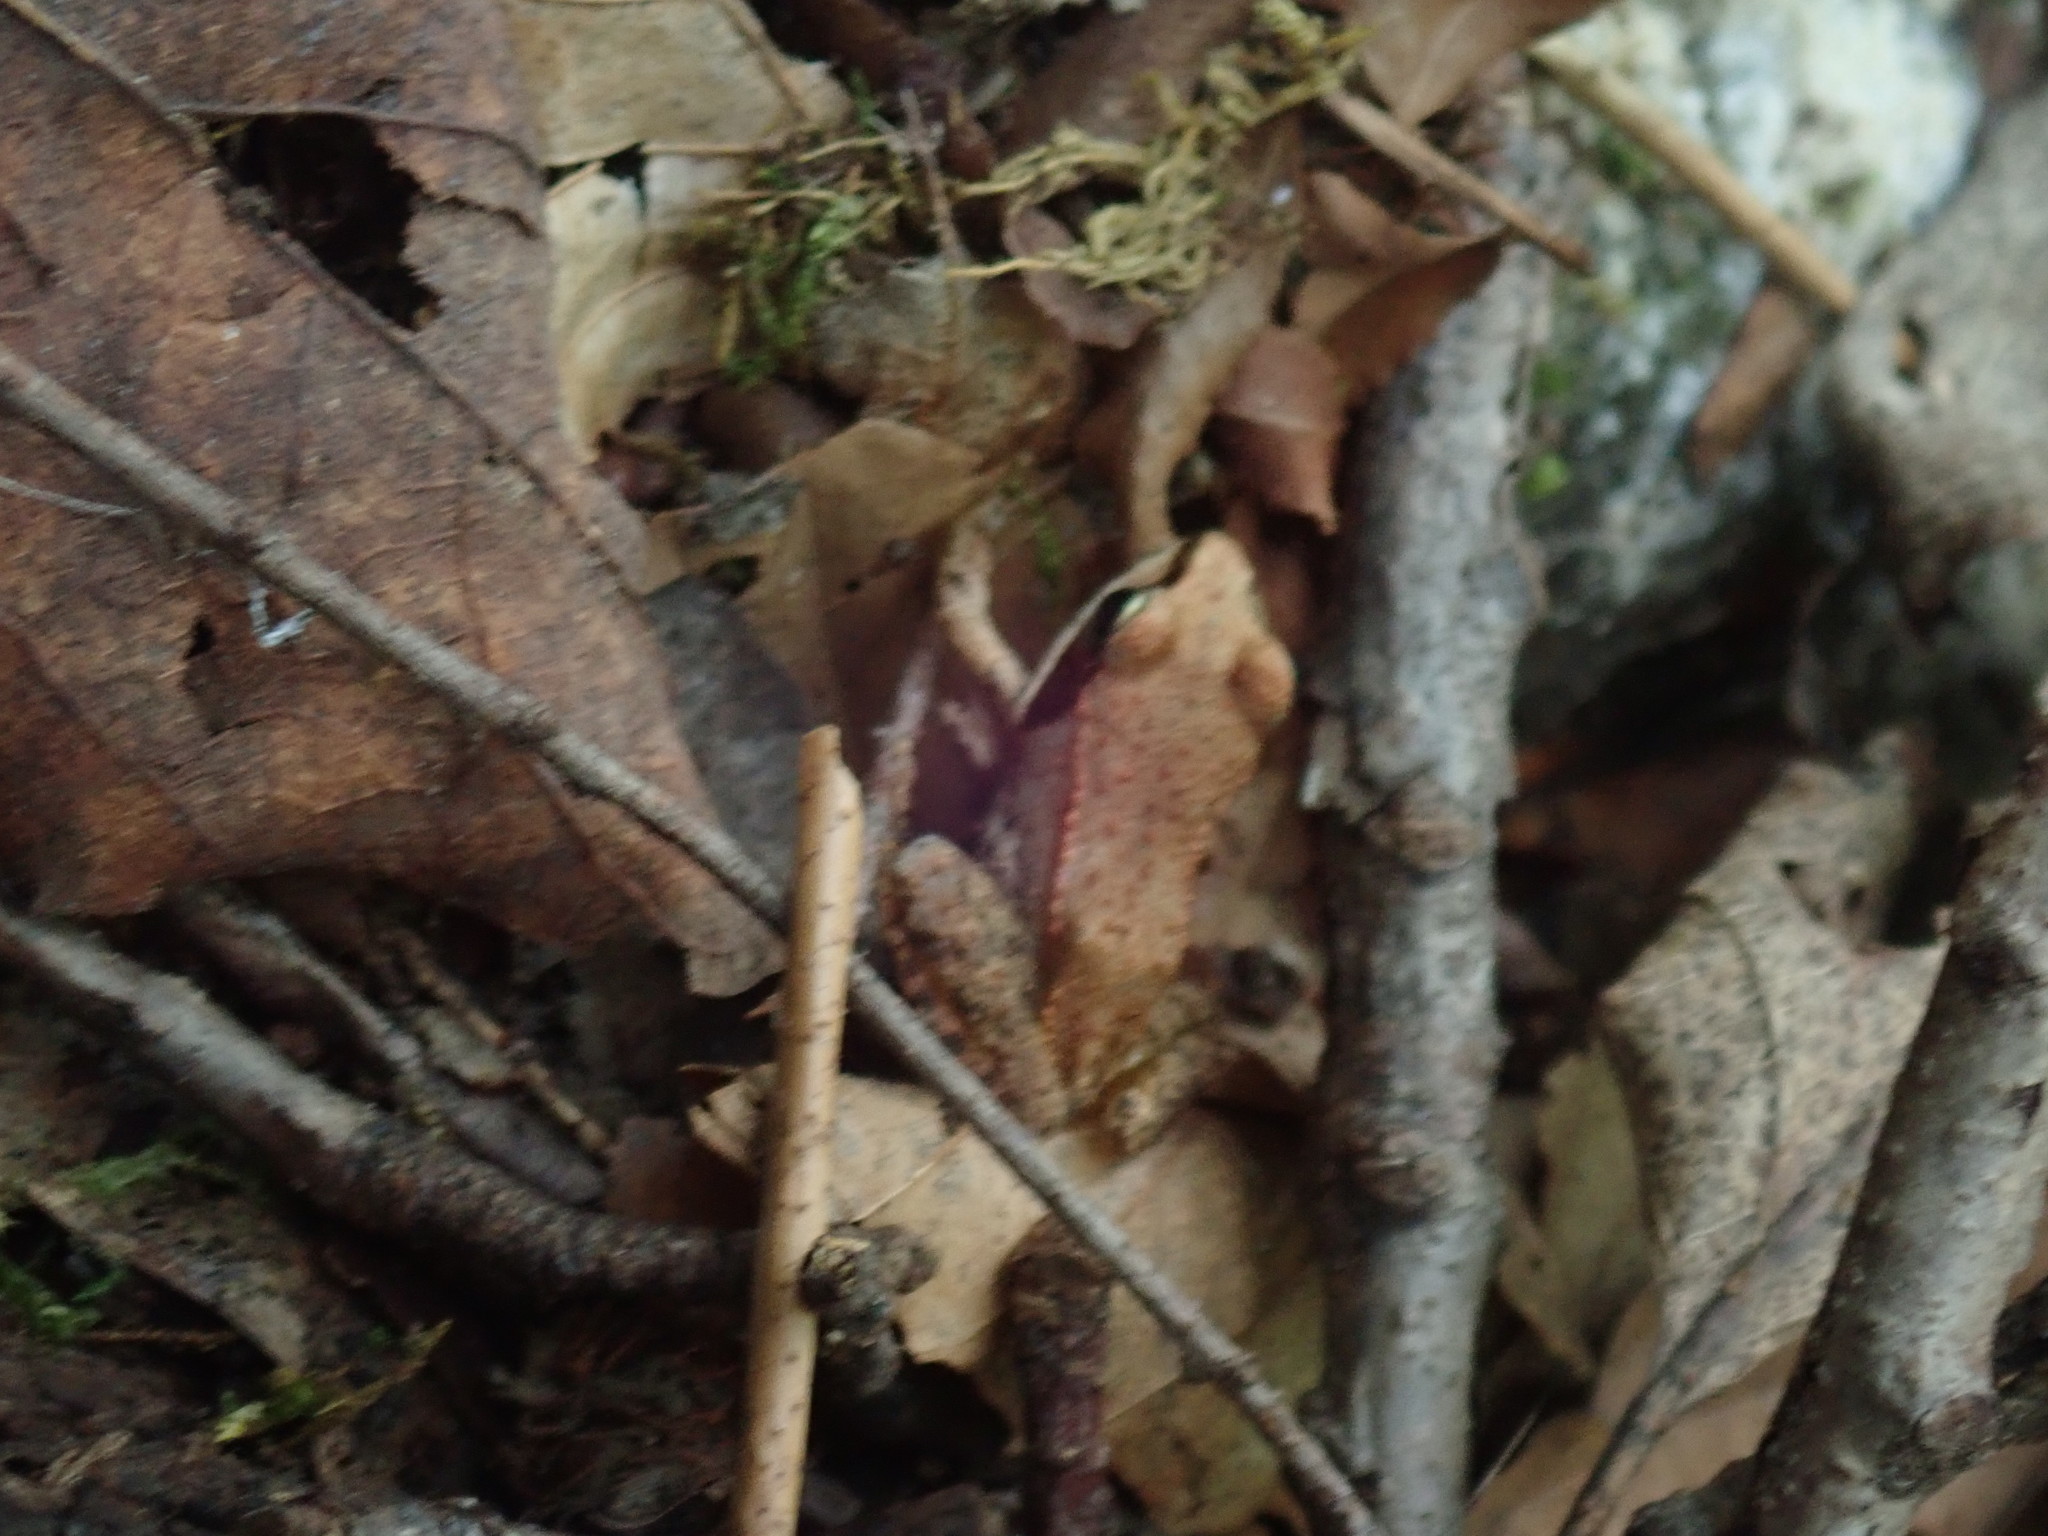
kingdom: Animalia
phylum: Chordata
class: Amphibia
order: Anura
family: Ranidae
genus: Lithobates
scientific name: Lithobates sylvaticus
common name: Wood frog
